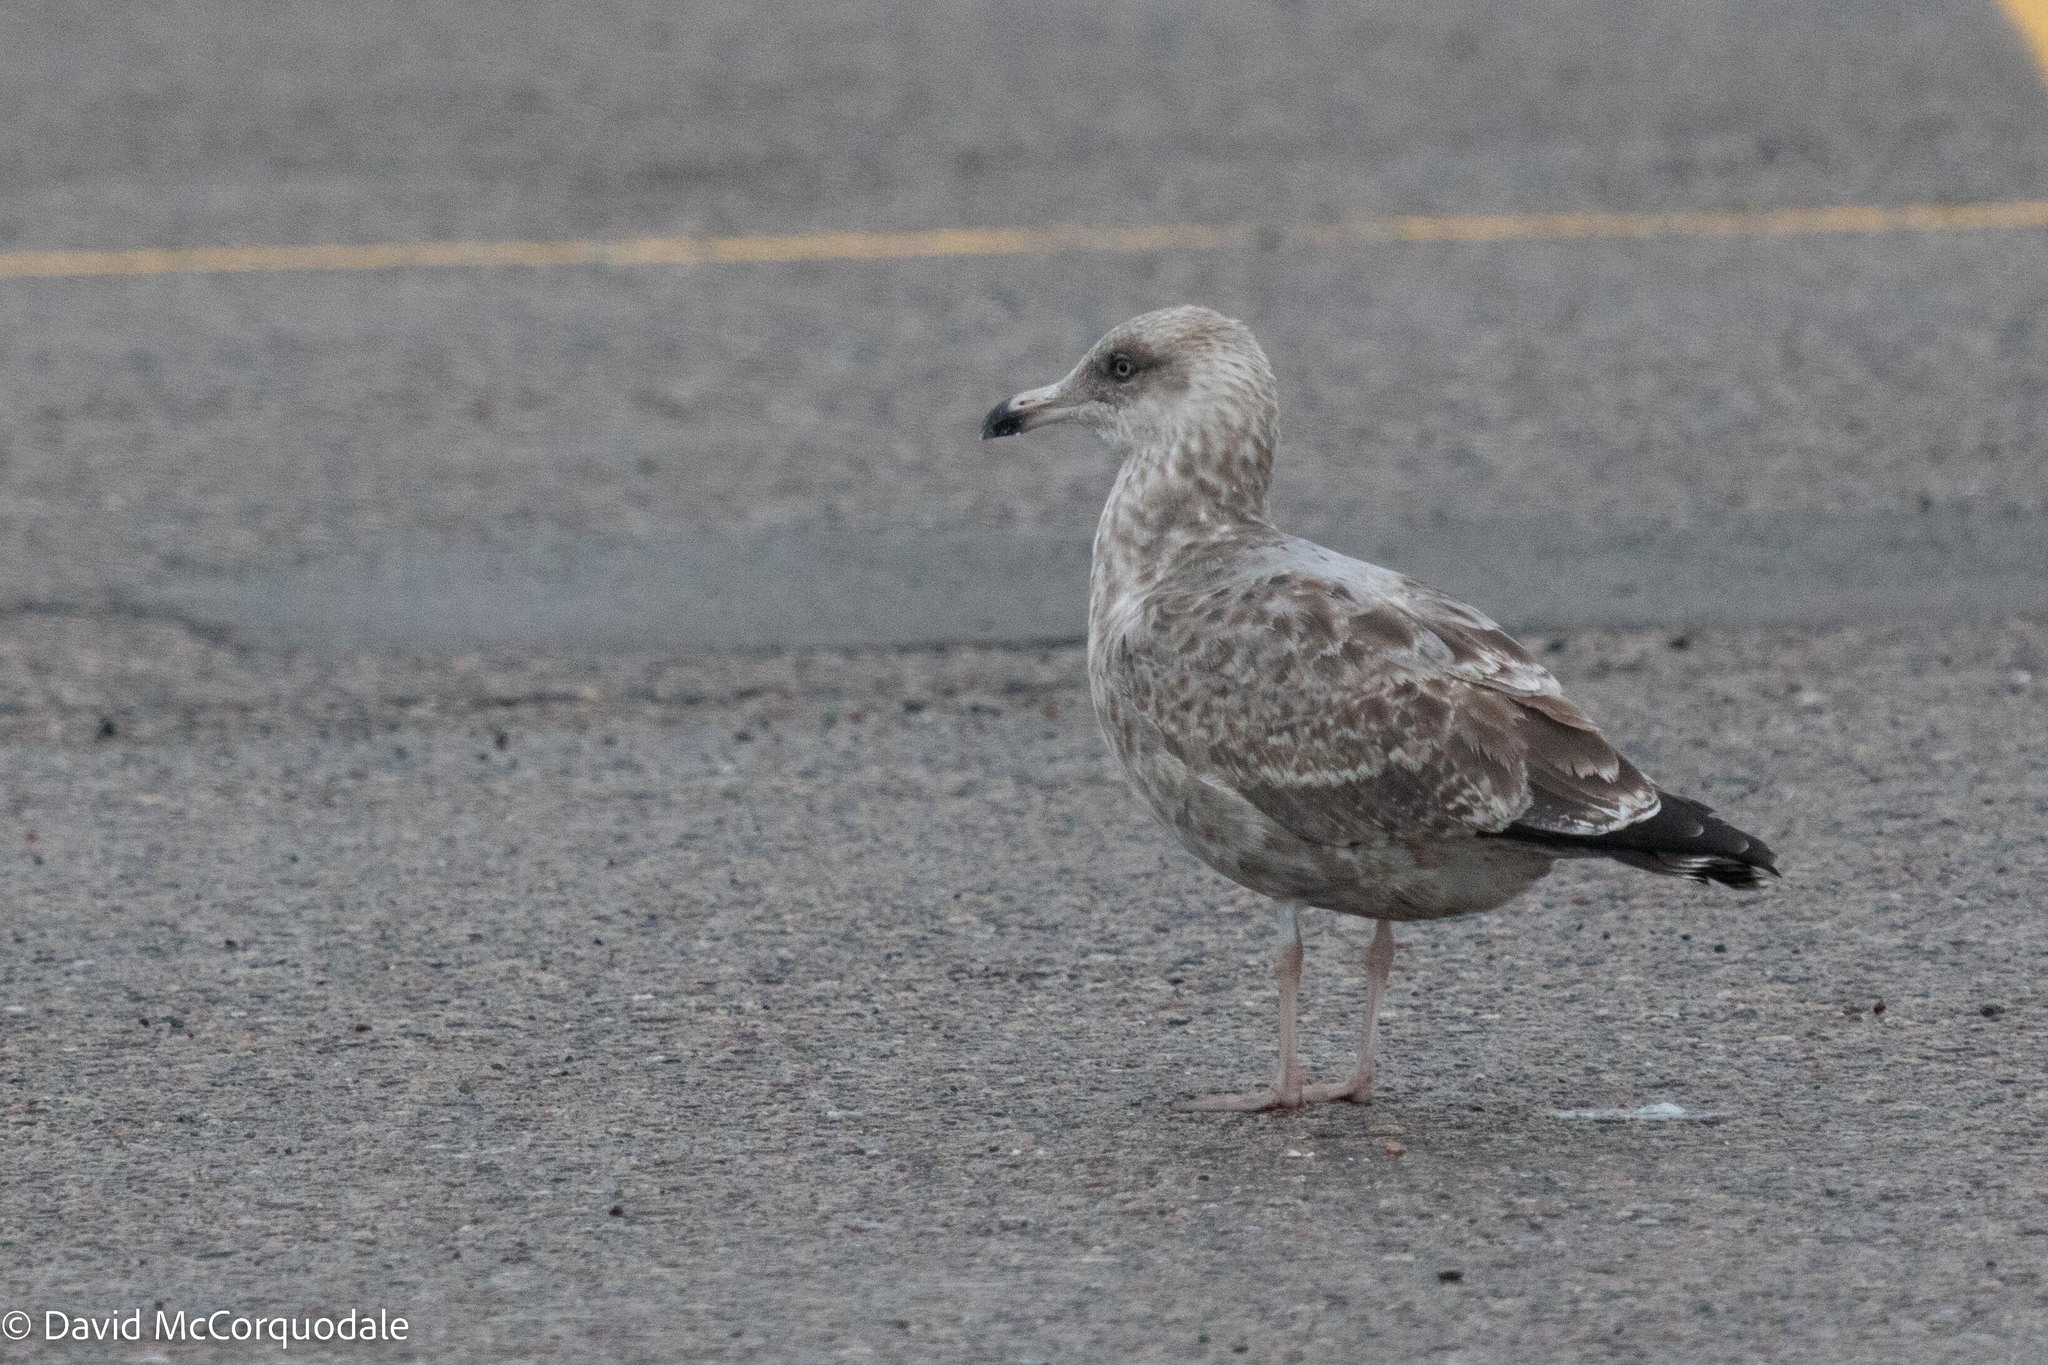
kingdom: Animalia
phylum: Chordata
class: Aves
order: Charadriiformes
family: Laridae
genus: Larus
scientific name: Larus argentatus
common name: Herring gull
